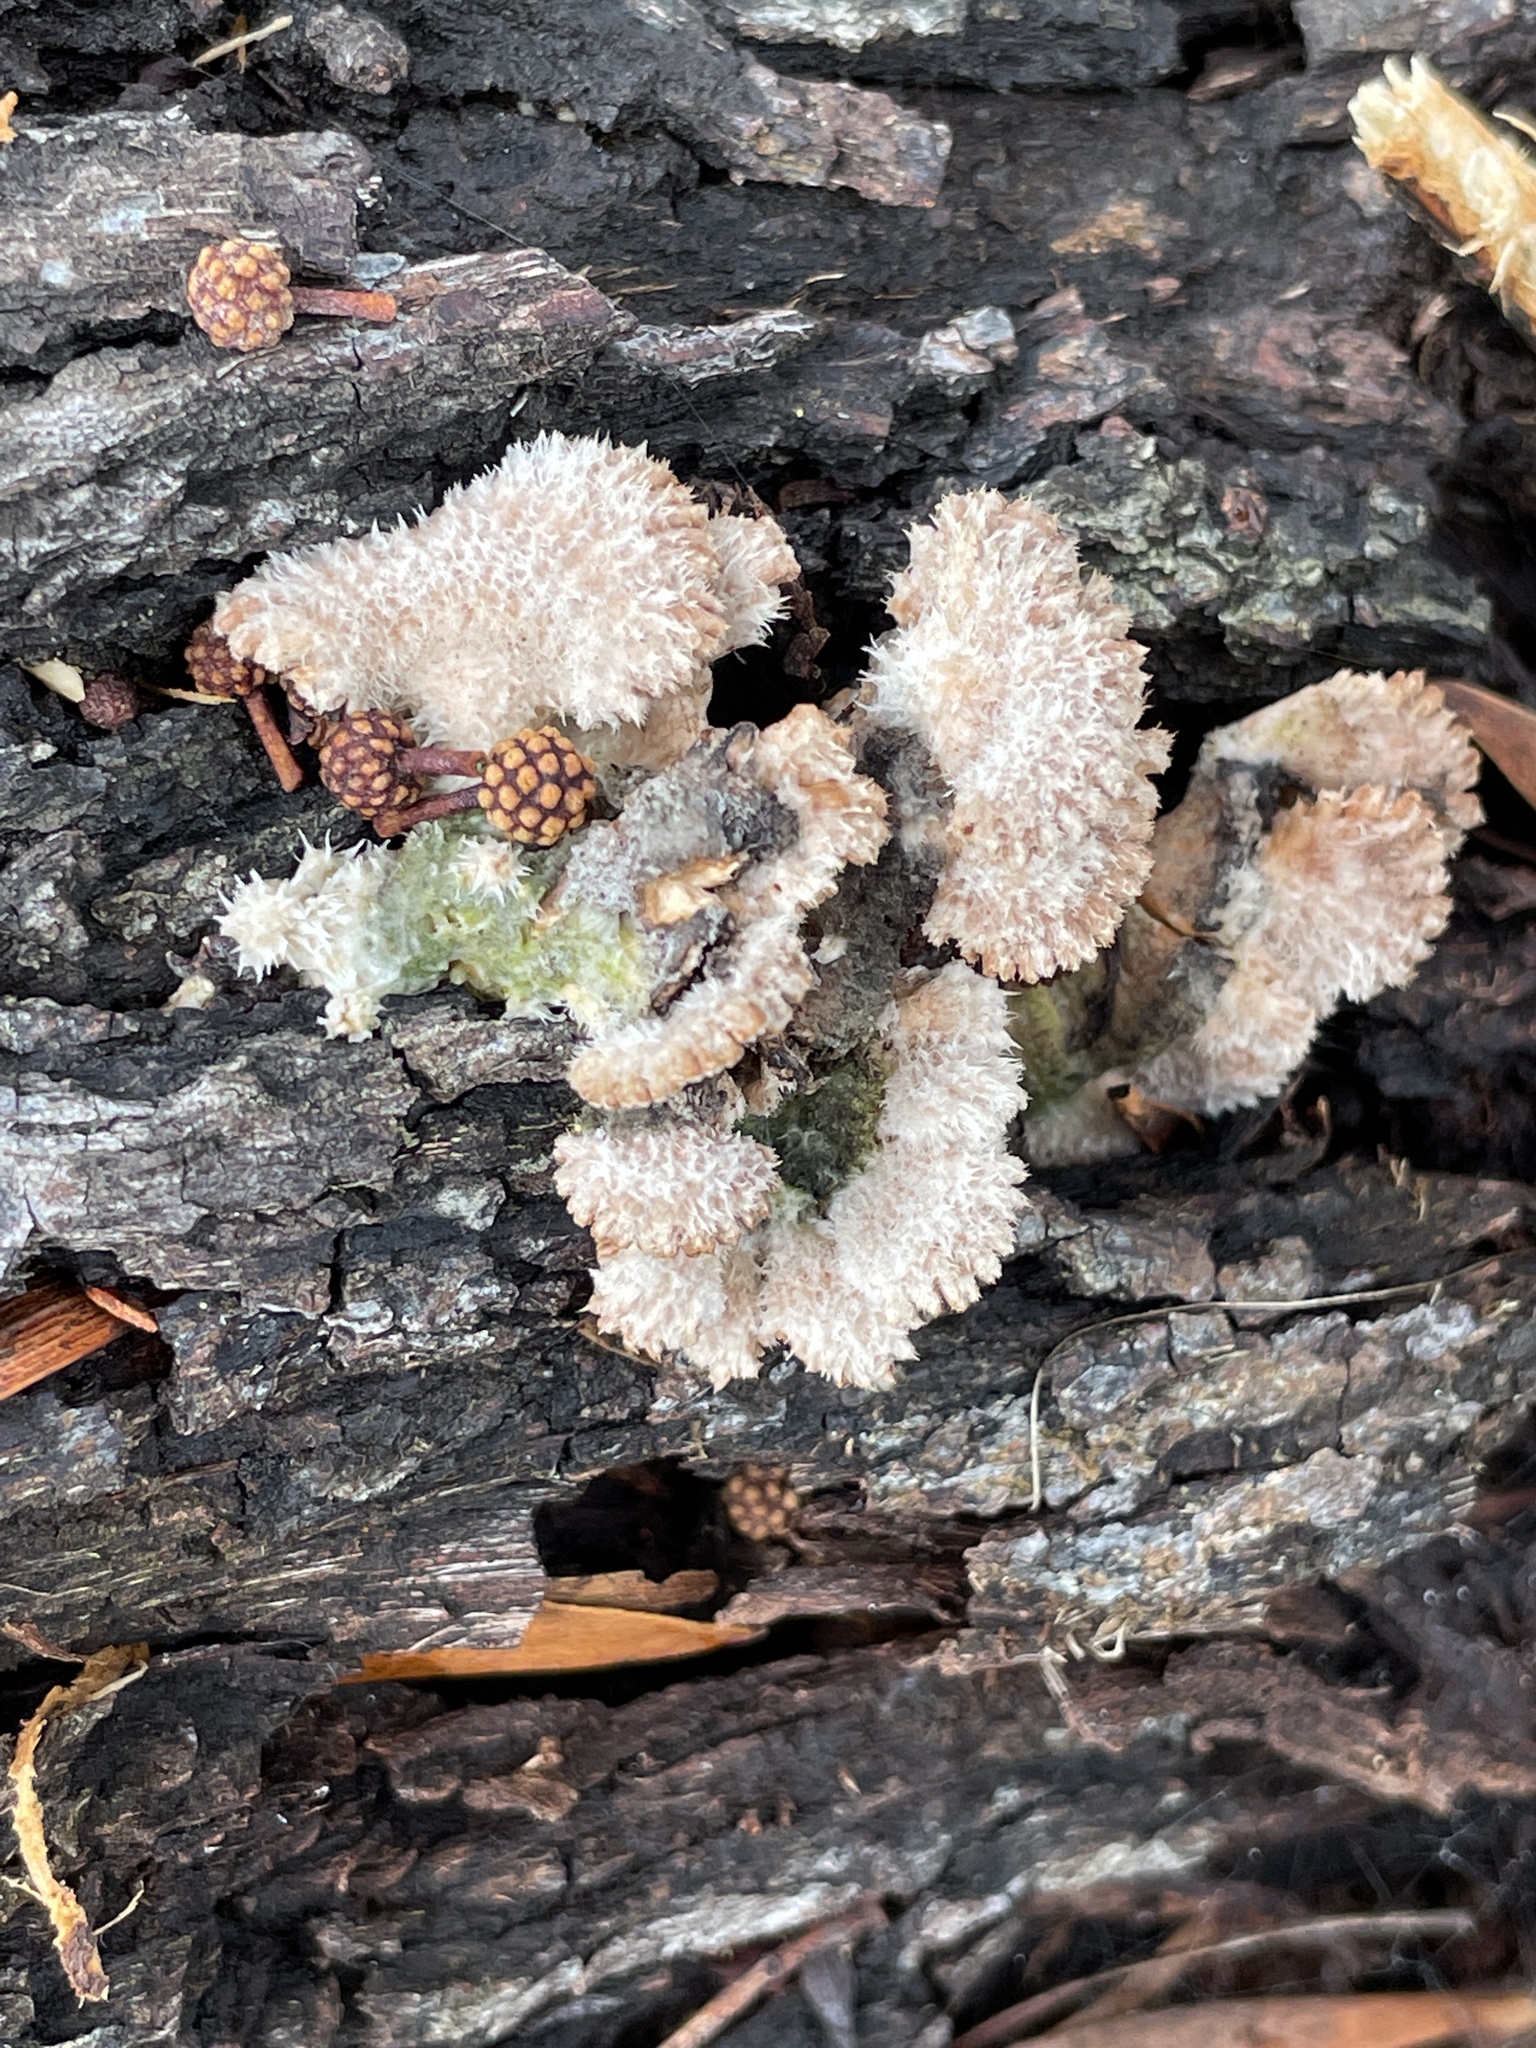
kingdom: Fungi
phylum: Basidiomycota
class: Agaricomycetes
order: Agaricales
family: Schizophyllaceae
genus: Schizophyllum
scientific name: Schizophyllum commune
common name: Common porecrust
